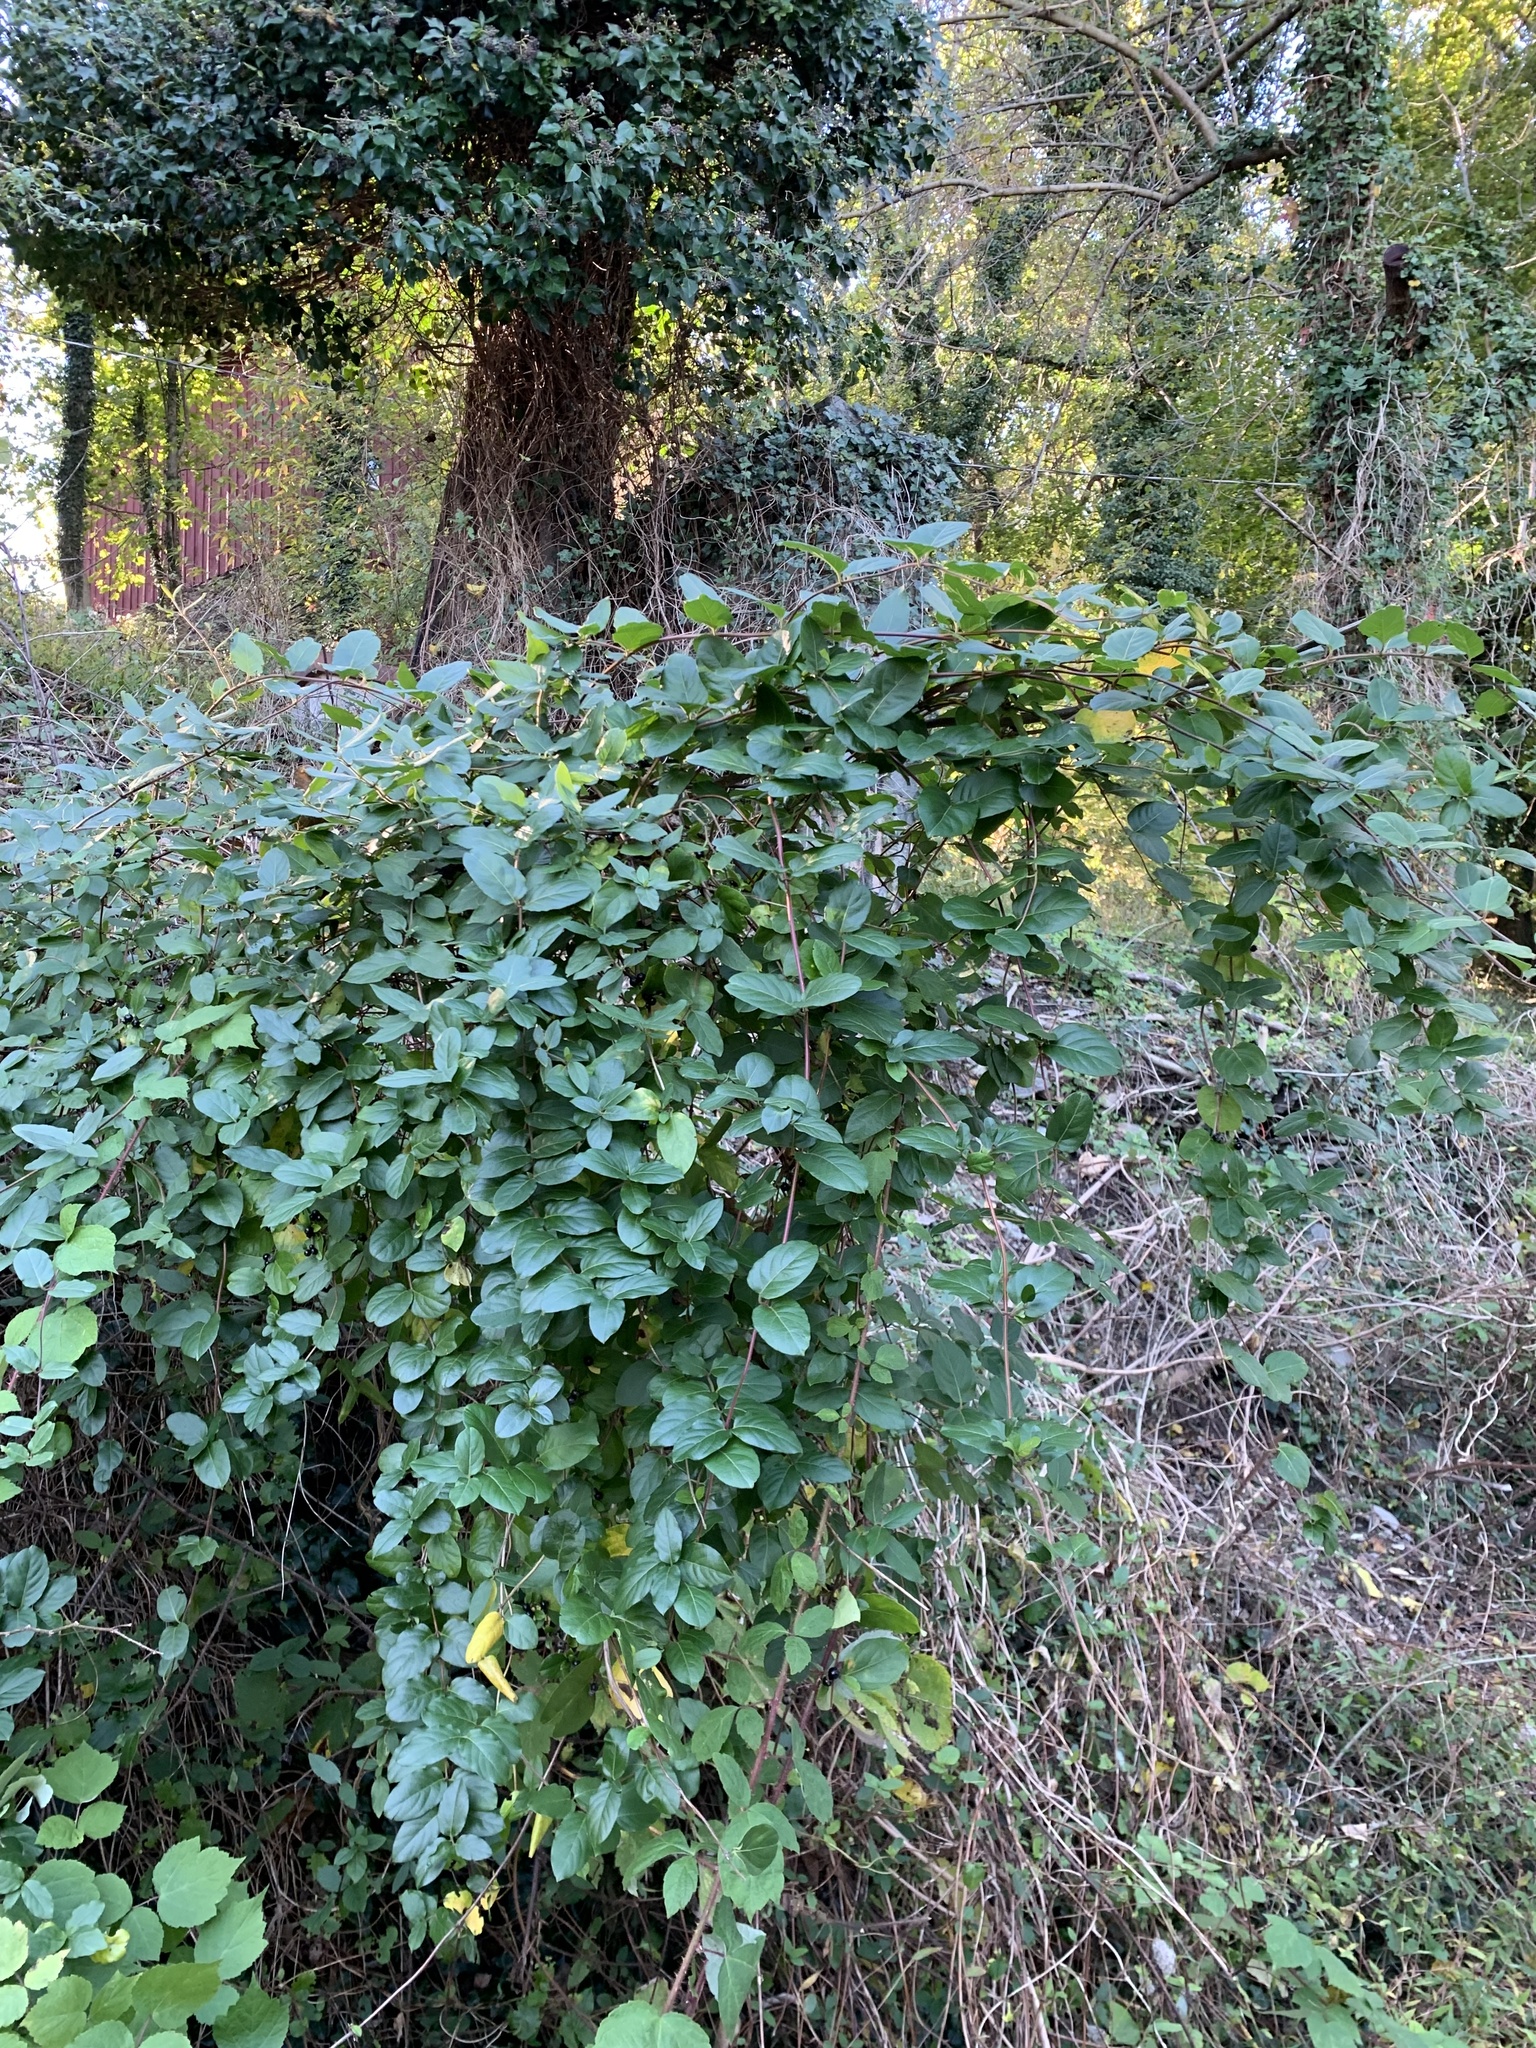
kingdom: Plantae
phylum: Tracheophyta
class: Magnoliopsida
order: Dipsacales
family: Caprifoliaceae
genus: Lonicera
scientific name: Lonicera japonica
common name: Japanese honeysuckle
